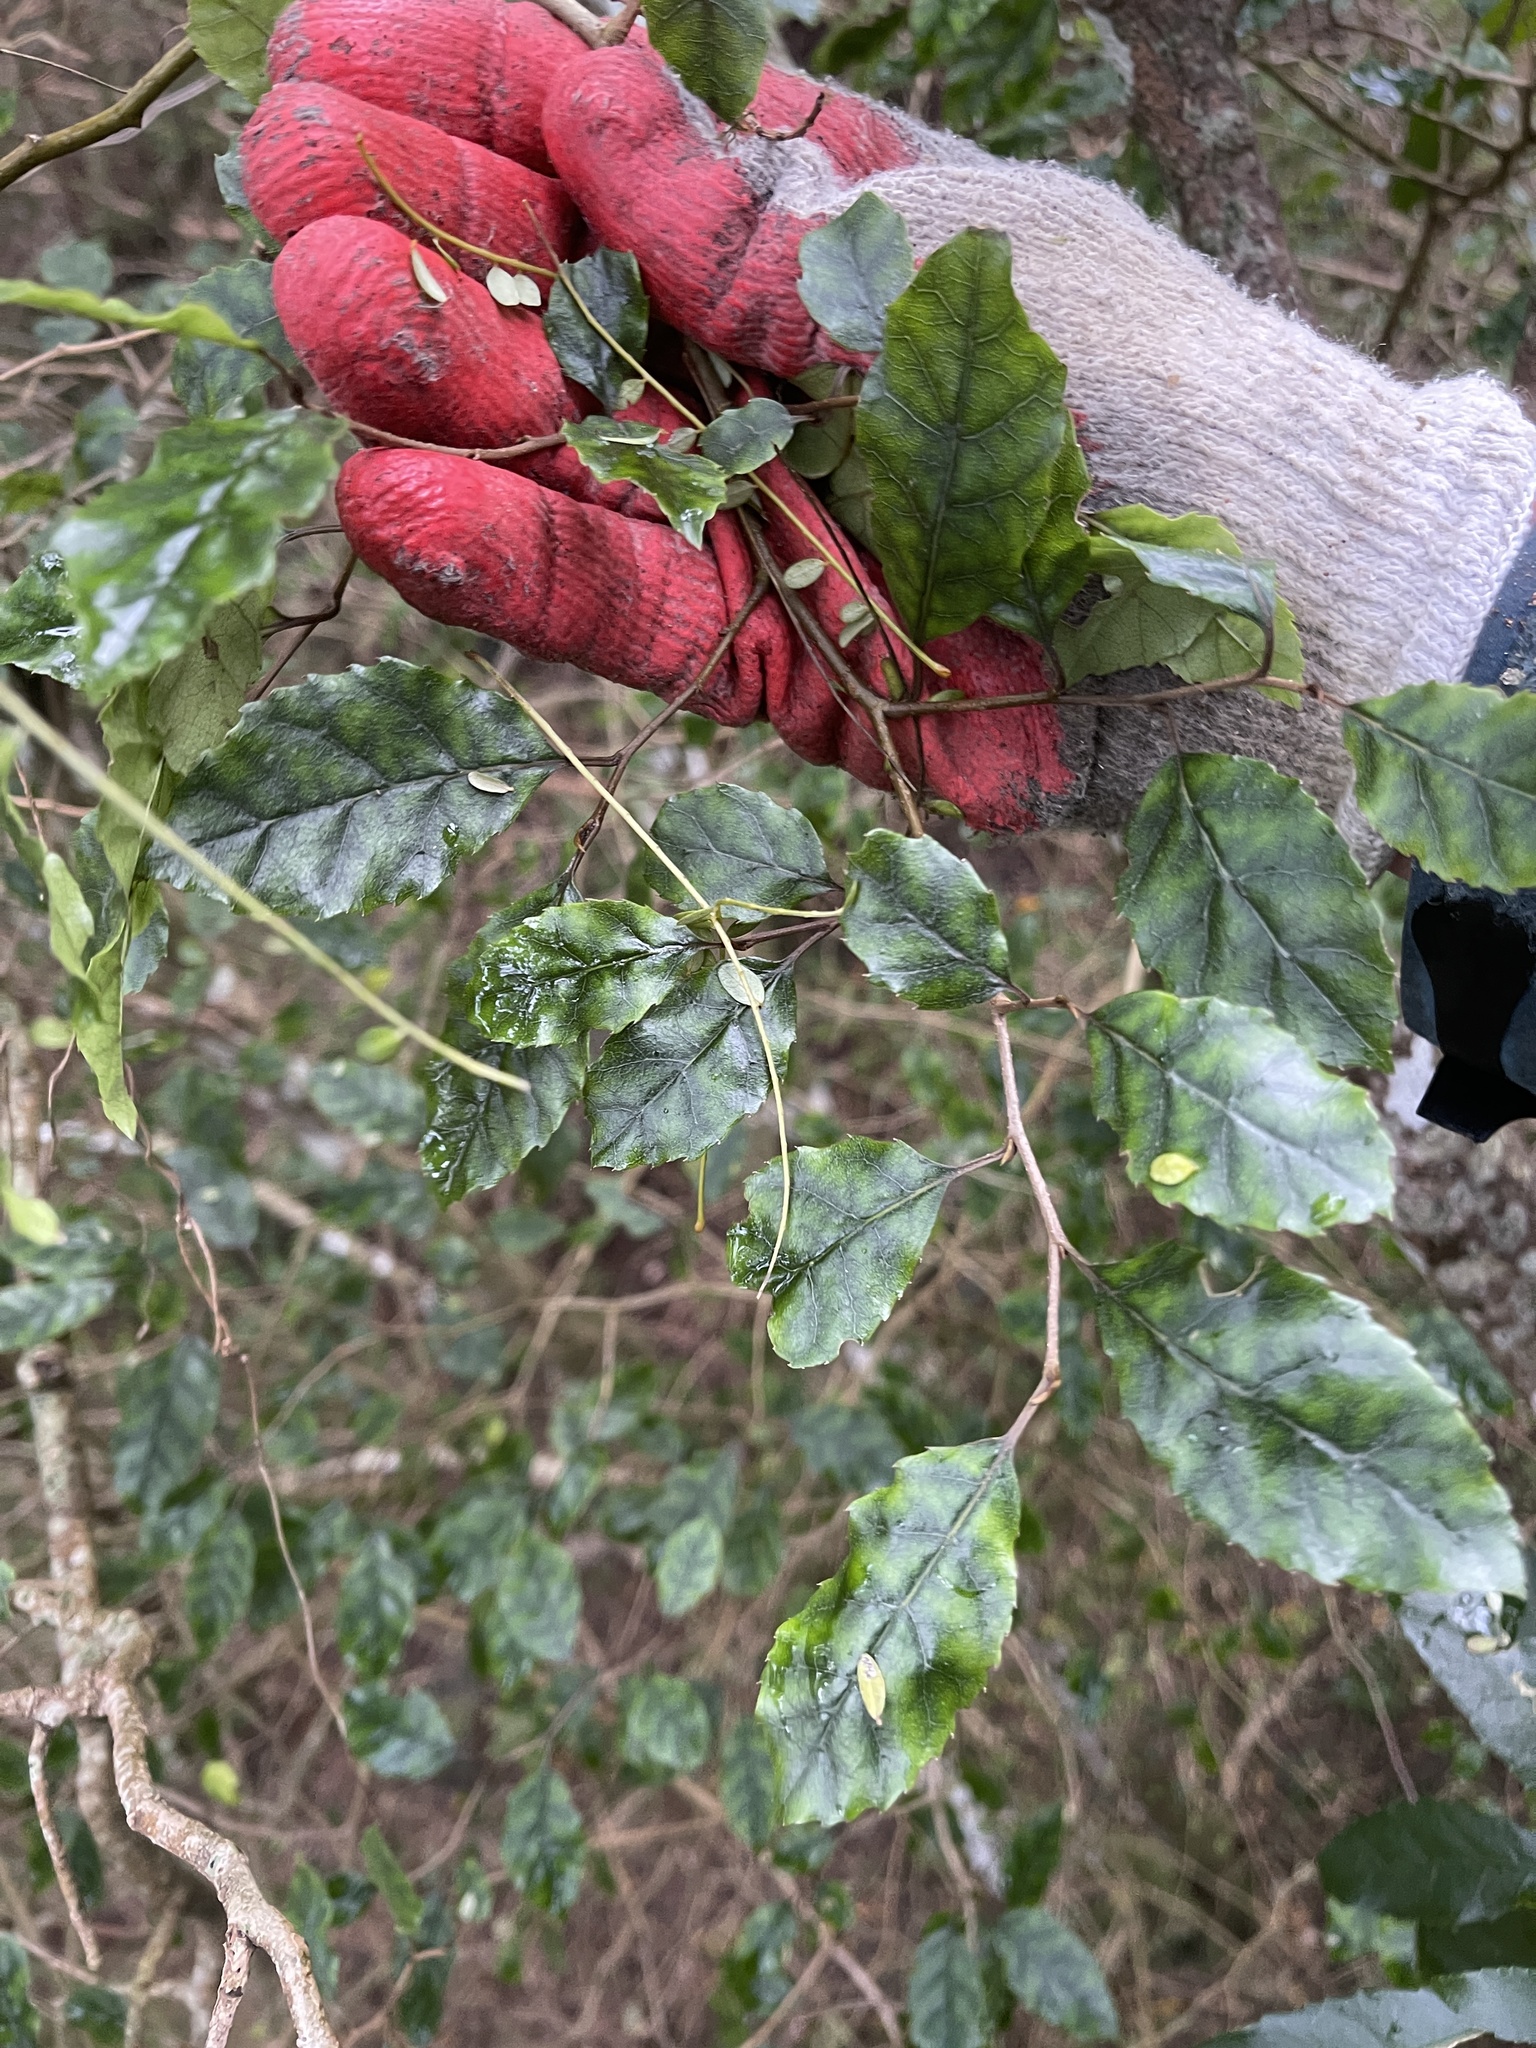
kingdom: Plantae
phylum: Tracheophyta
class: Magnoliopsida
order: Asterales
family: Rousseaceae
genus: Carpodetus
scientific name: Carpodetus serratus
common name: White mapau
